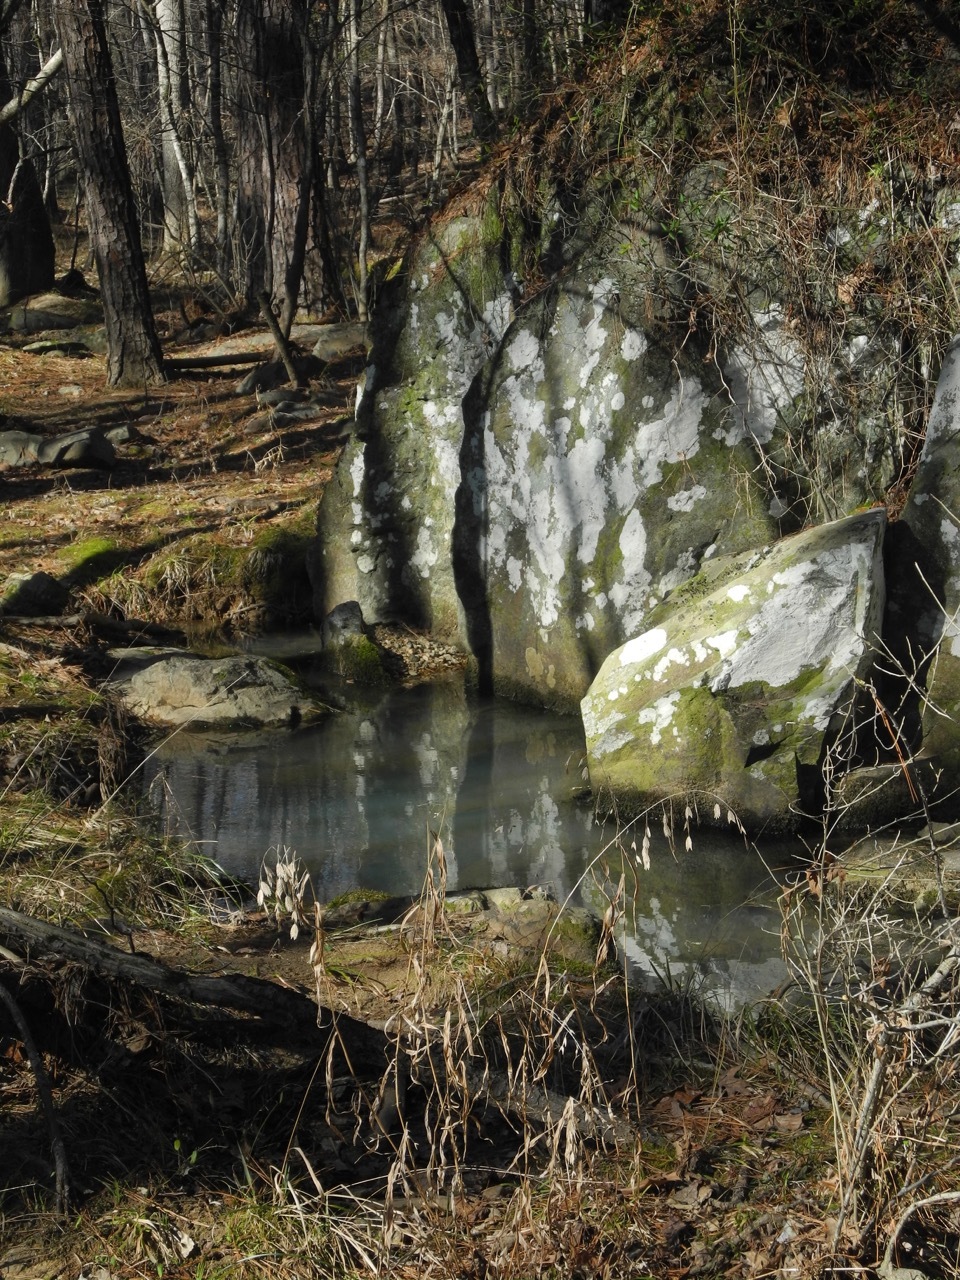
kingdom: Plantae
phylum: Tracheophyta
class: Liliopsida
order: Poales
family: Poaceae
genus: Chasmanthium
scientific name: Chasmanthium latifolium
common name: Broad-leaved chasmanthium
